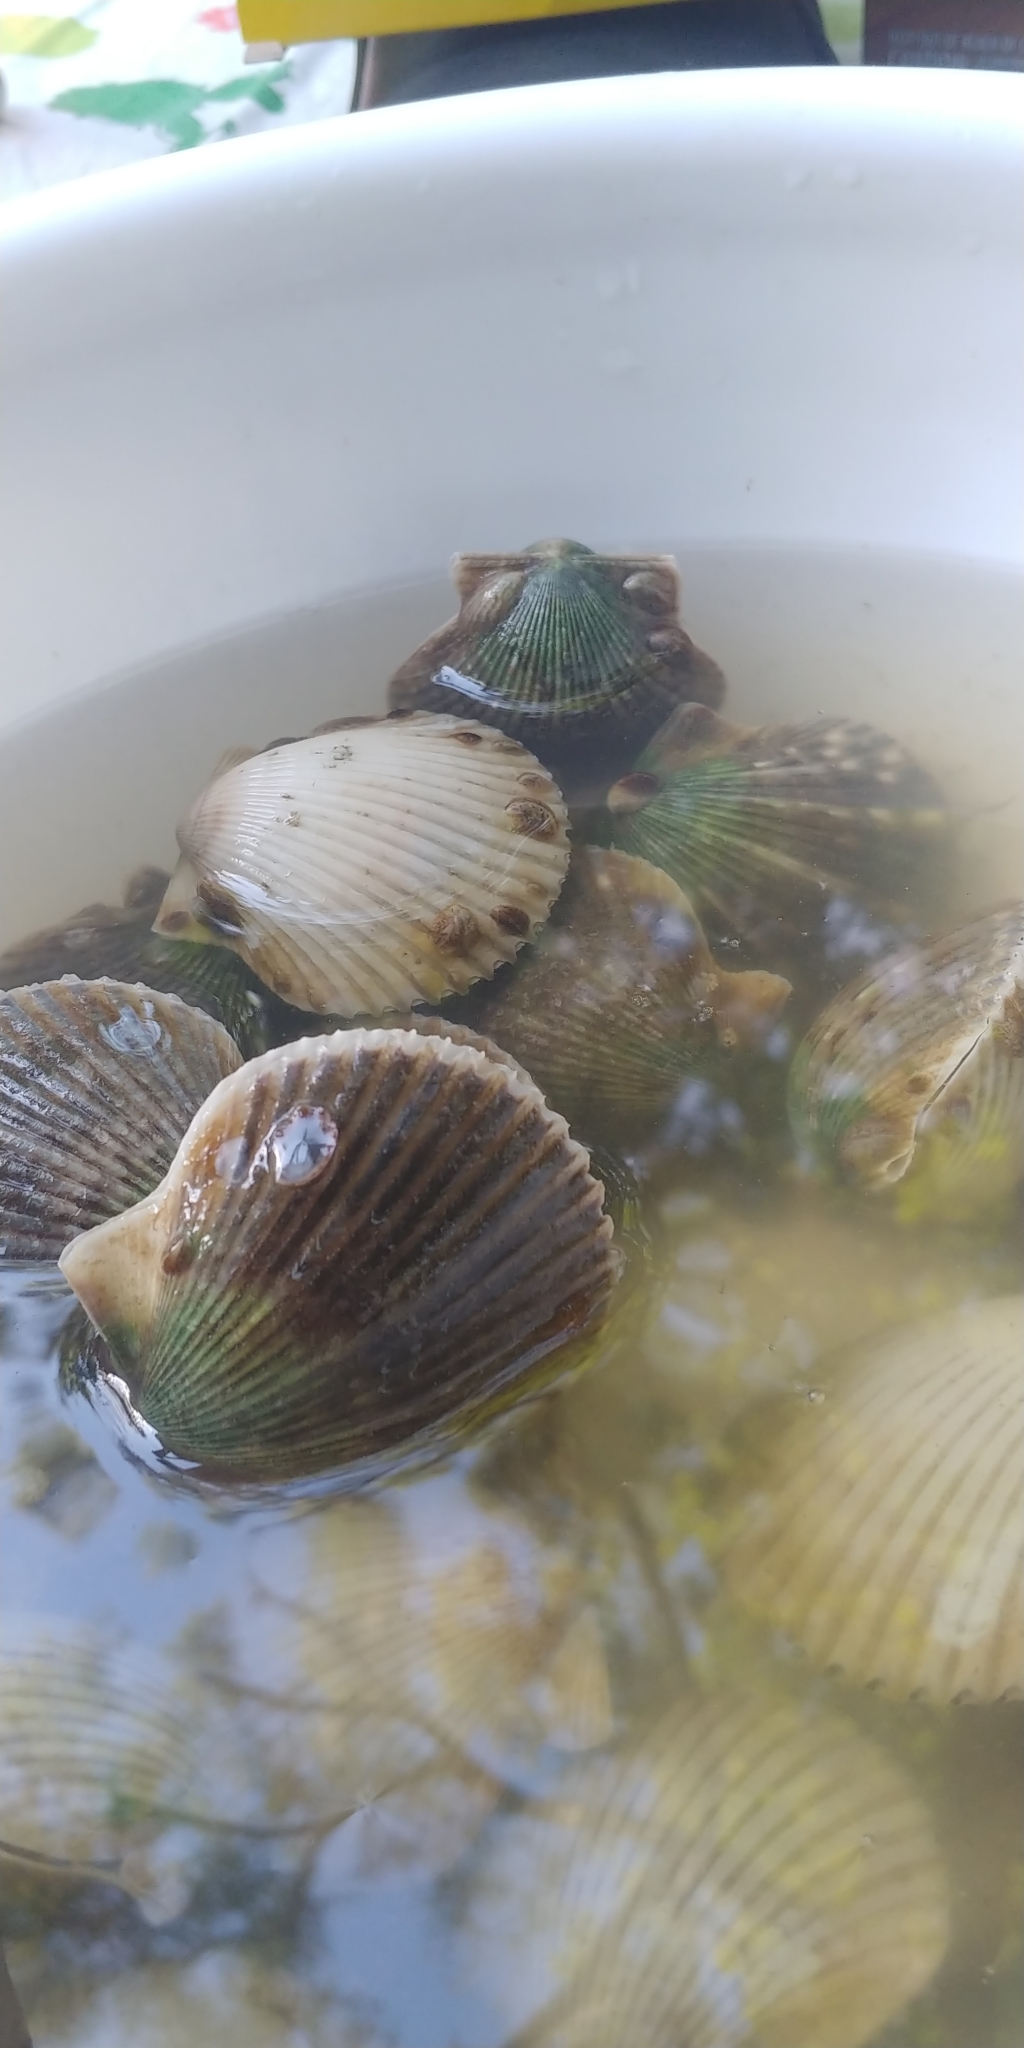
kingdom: Animalia
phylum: Mollusca
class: Bivalvia
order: Pectinida
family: Pectinidae
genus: Argopecten
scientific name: Argopecten irradians
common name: Atlantic bay scallop
